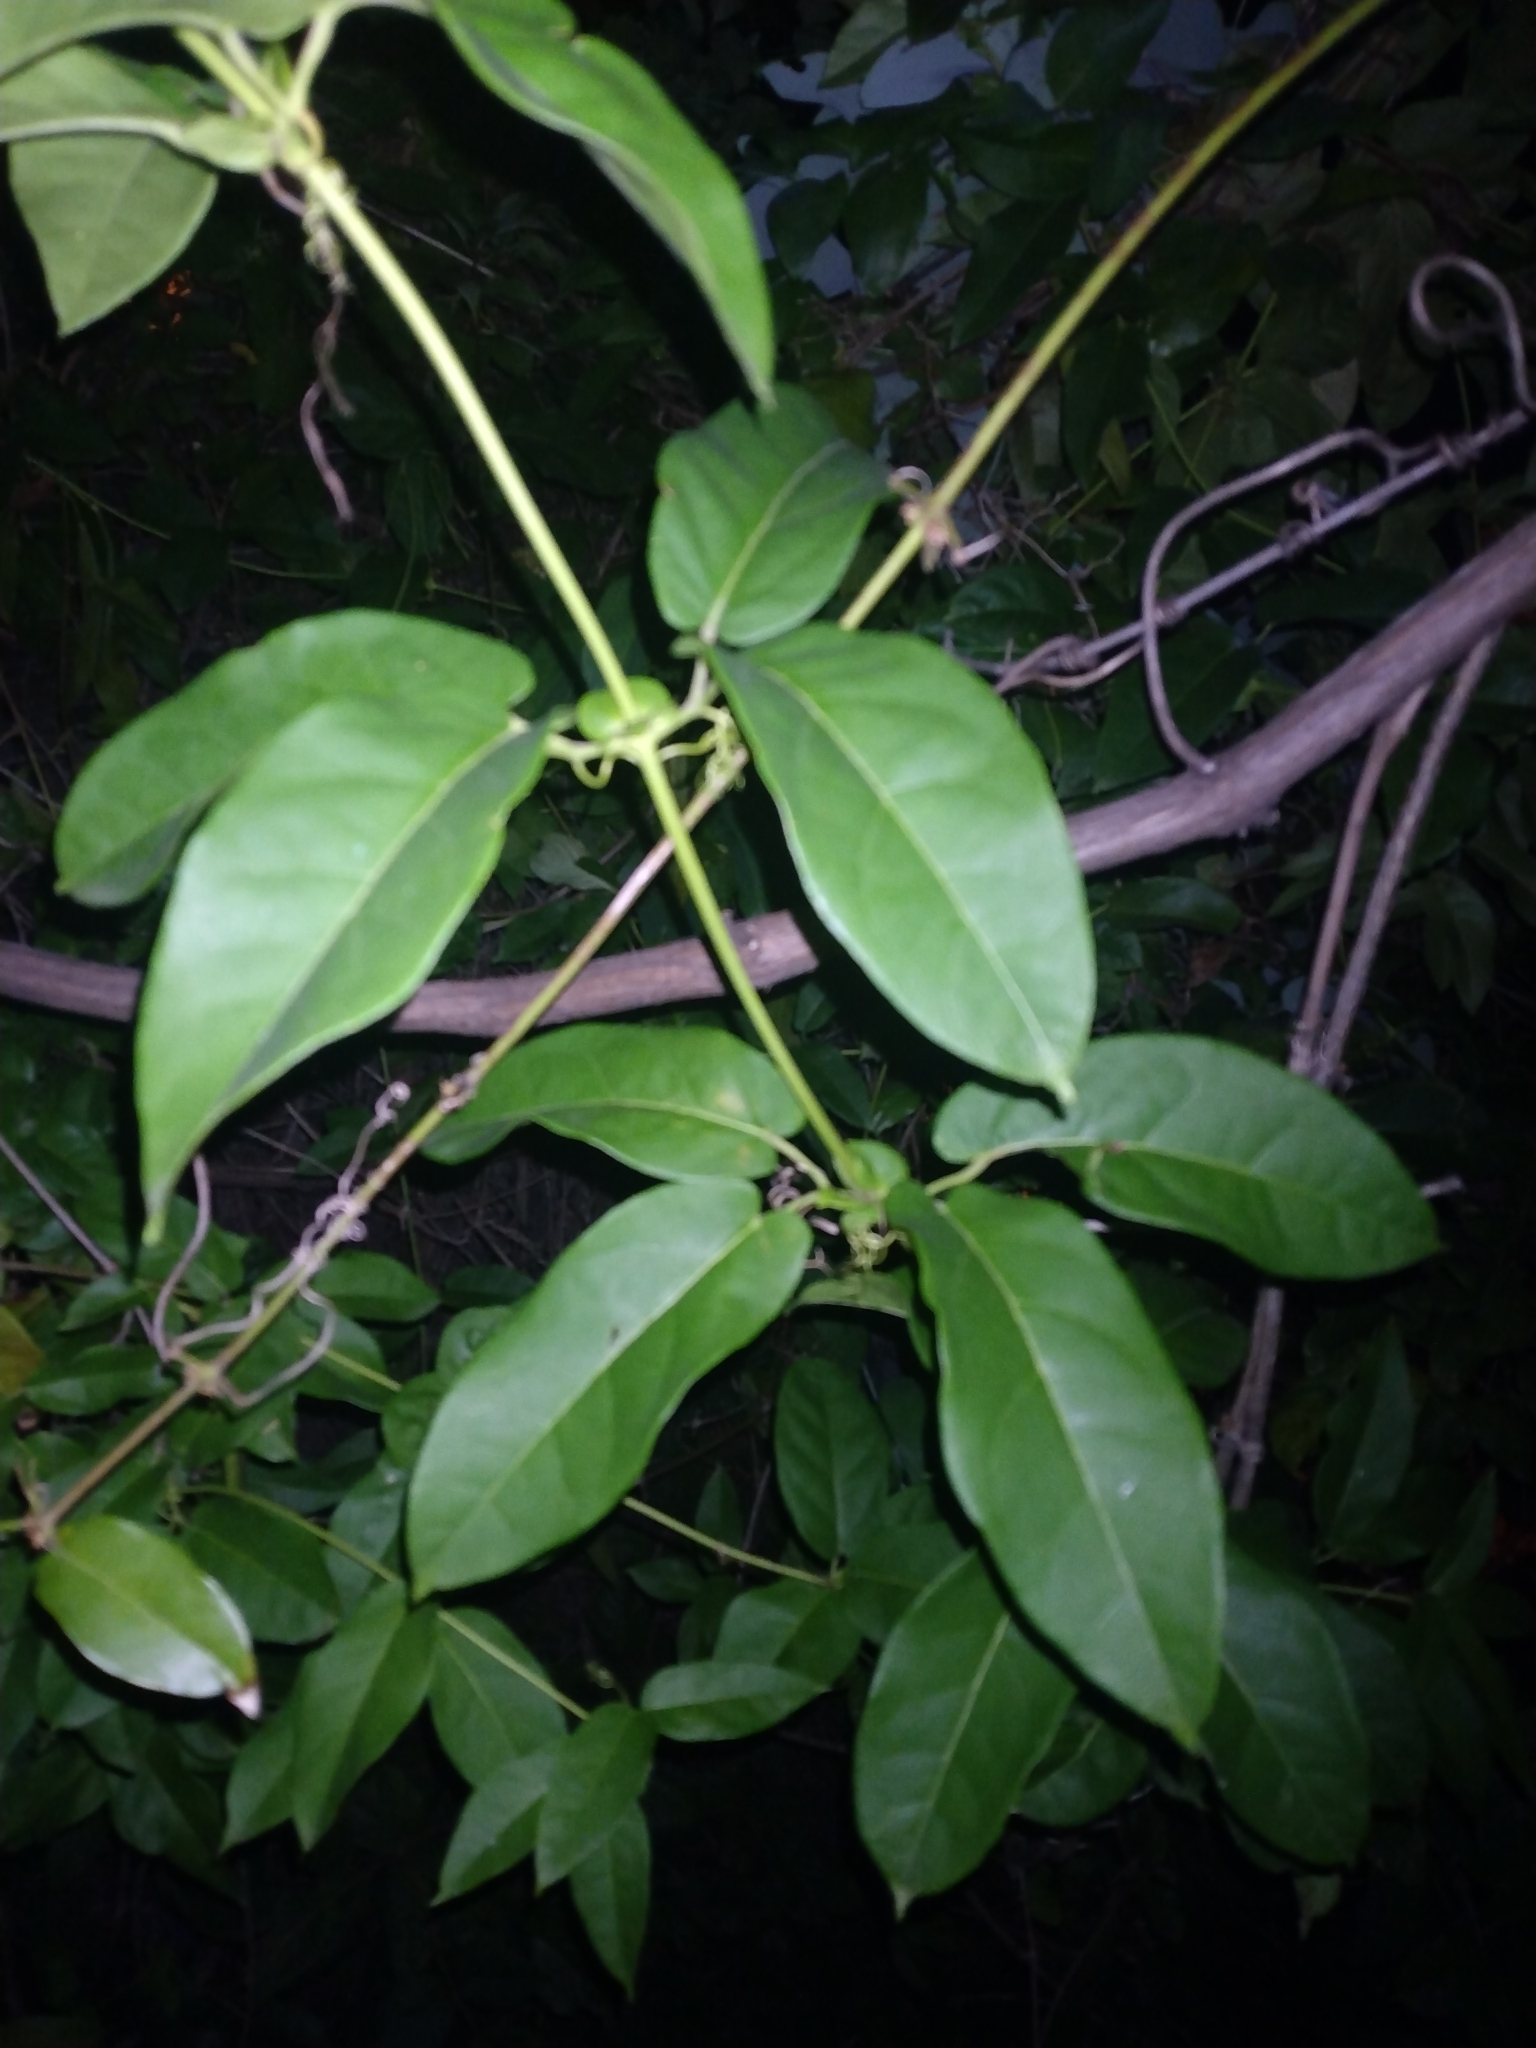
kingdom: Plantae
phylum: Tracheophyta
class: Magnoliopsida
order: Lamiales
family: Bignoniaceae
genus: Bignonia
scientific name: Bignonia capreolata
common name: Crossvine
